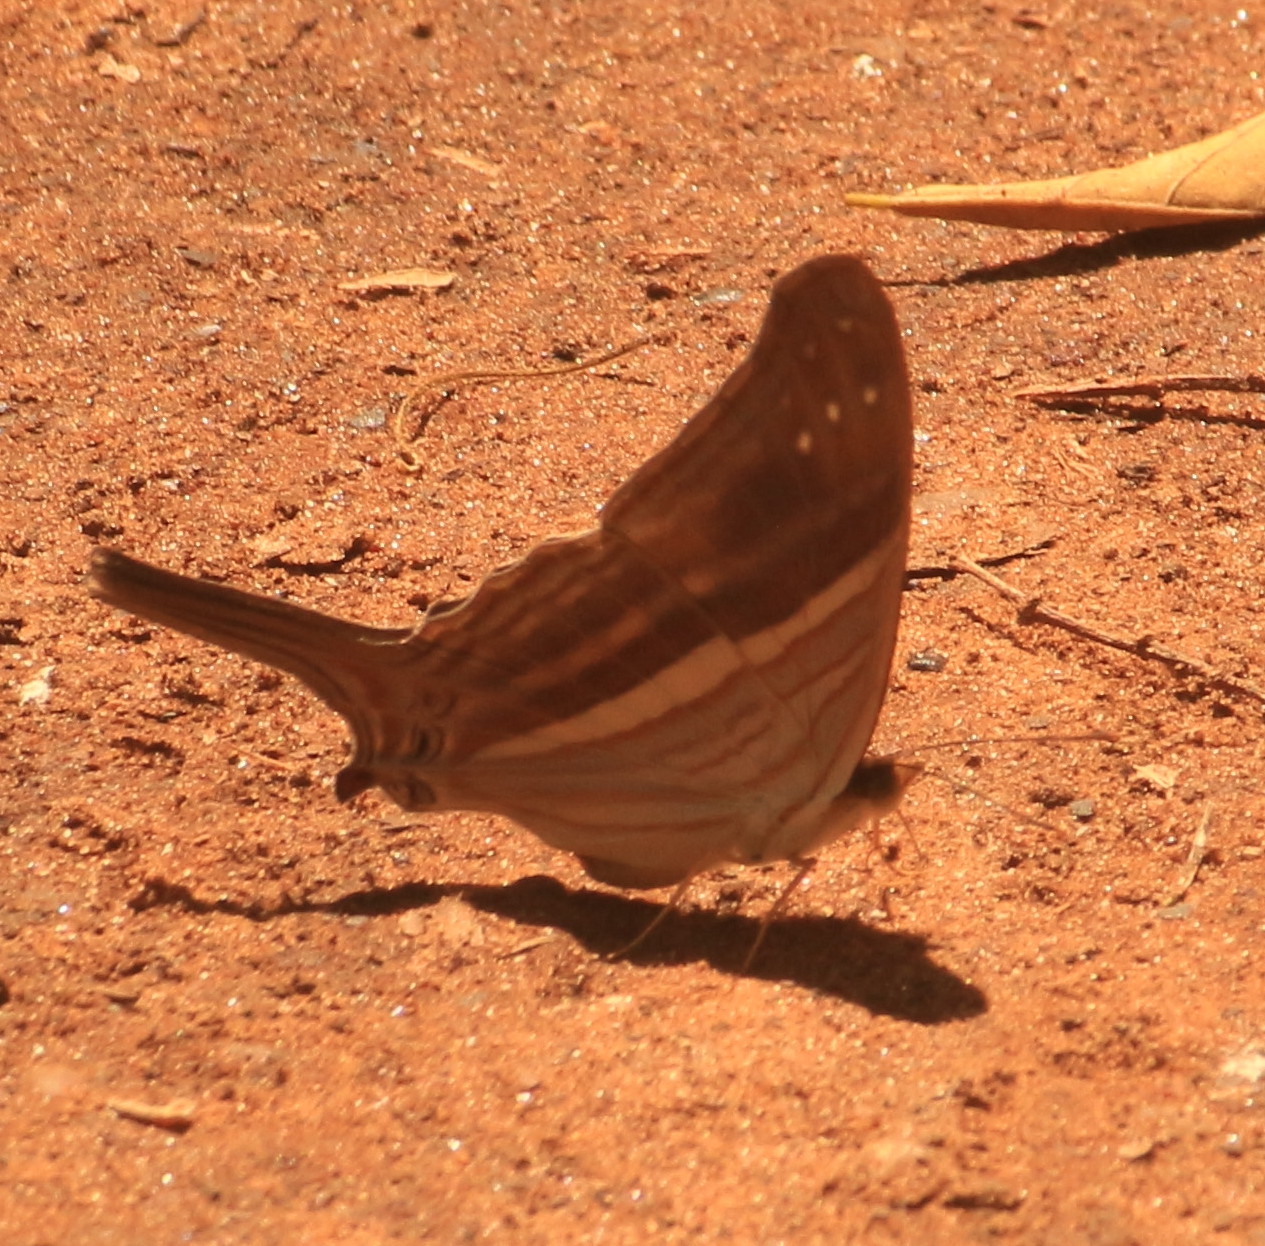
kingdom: Animalia
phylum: Arthropoda
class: Insecta
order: Lepidoptera
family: Nymphalidae
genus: Marpesia
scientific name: Marpesia chiron
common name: Many-banded daggerwing
